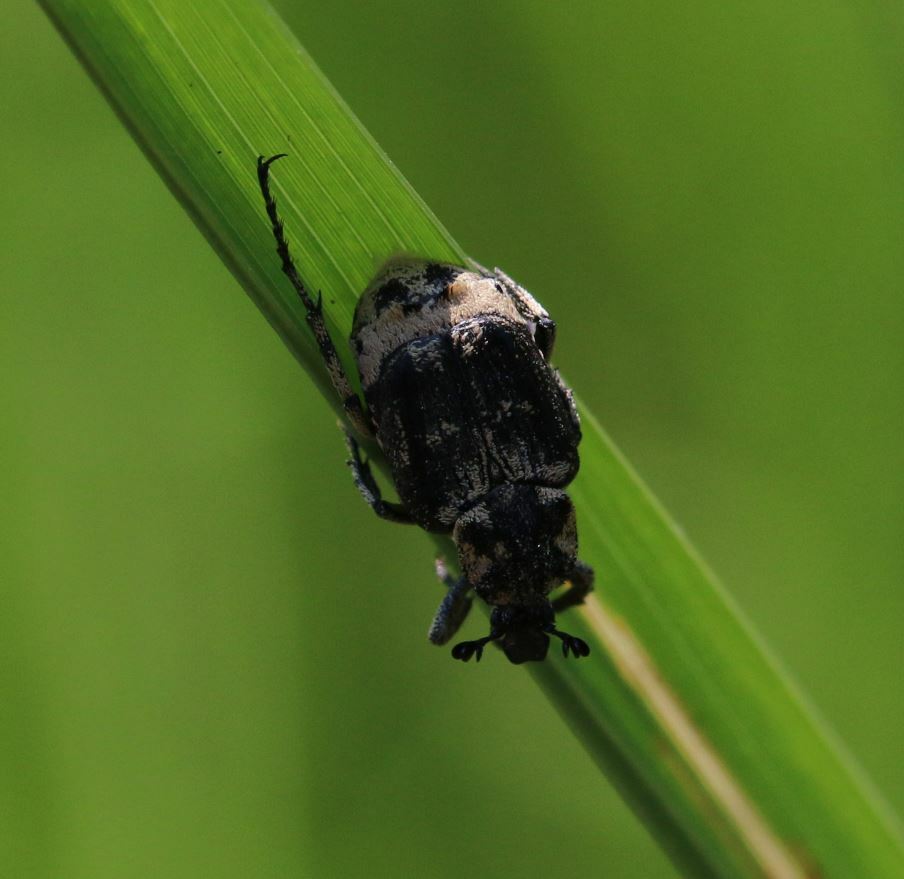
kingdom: Animalia
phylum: Arthropoda
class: Insecta
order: Coleoptera
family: Scarabaeidae
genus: Valgus
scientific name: Valgus hemipterus
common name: Bug flower chafer
